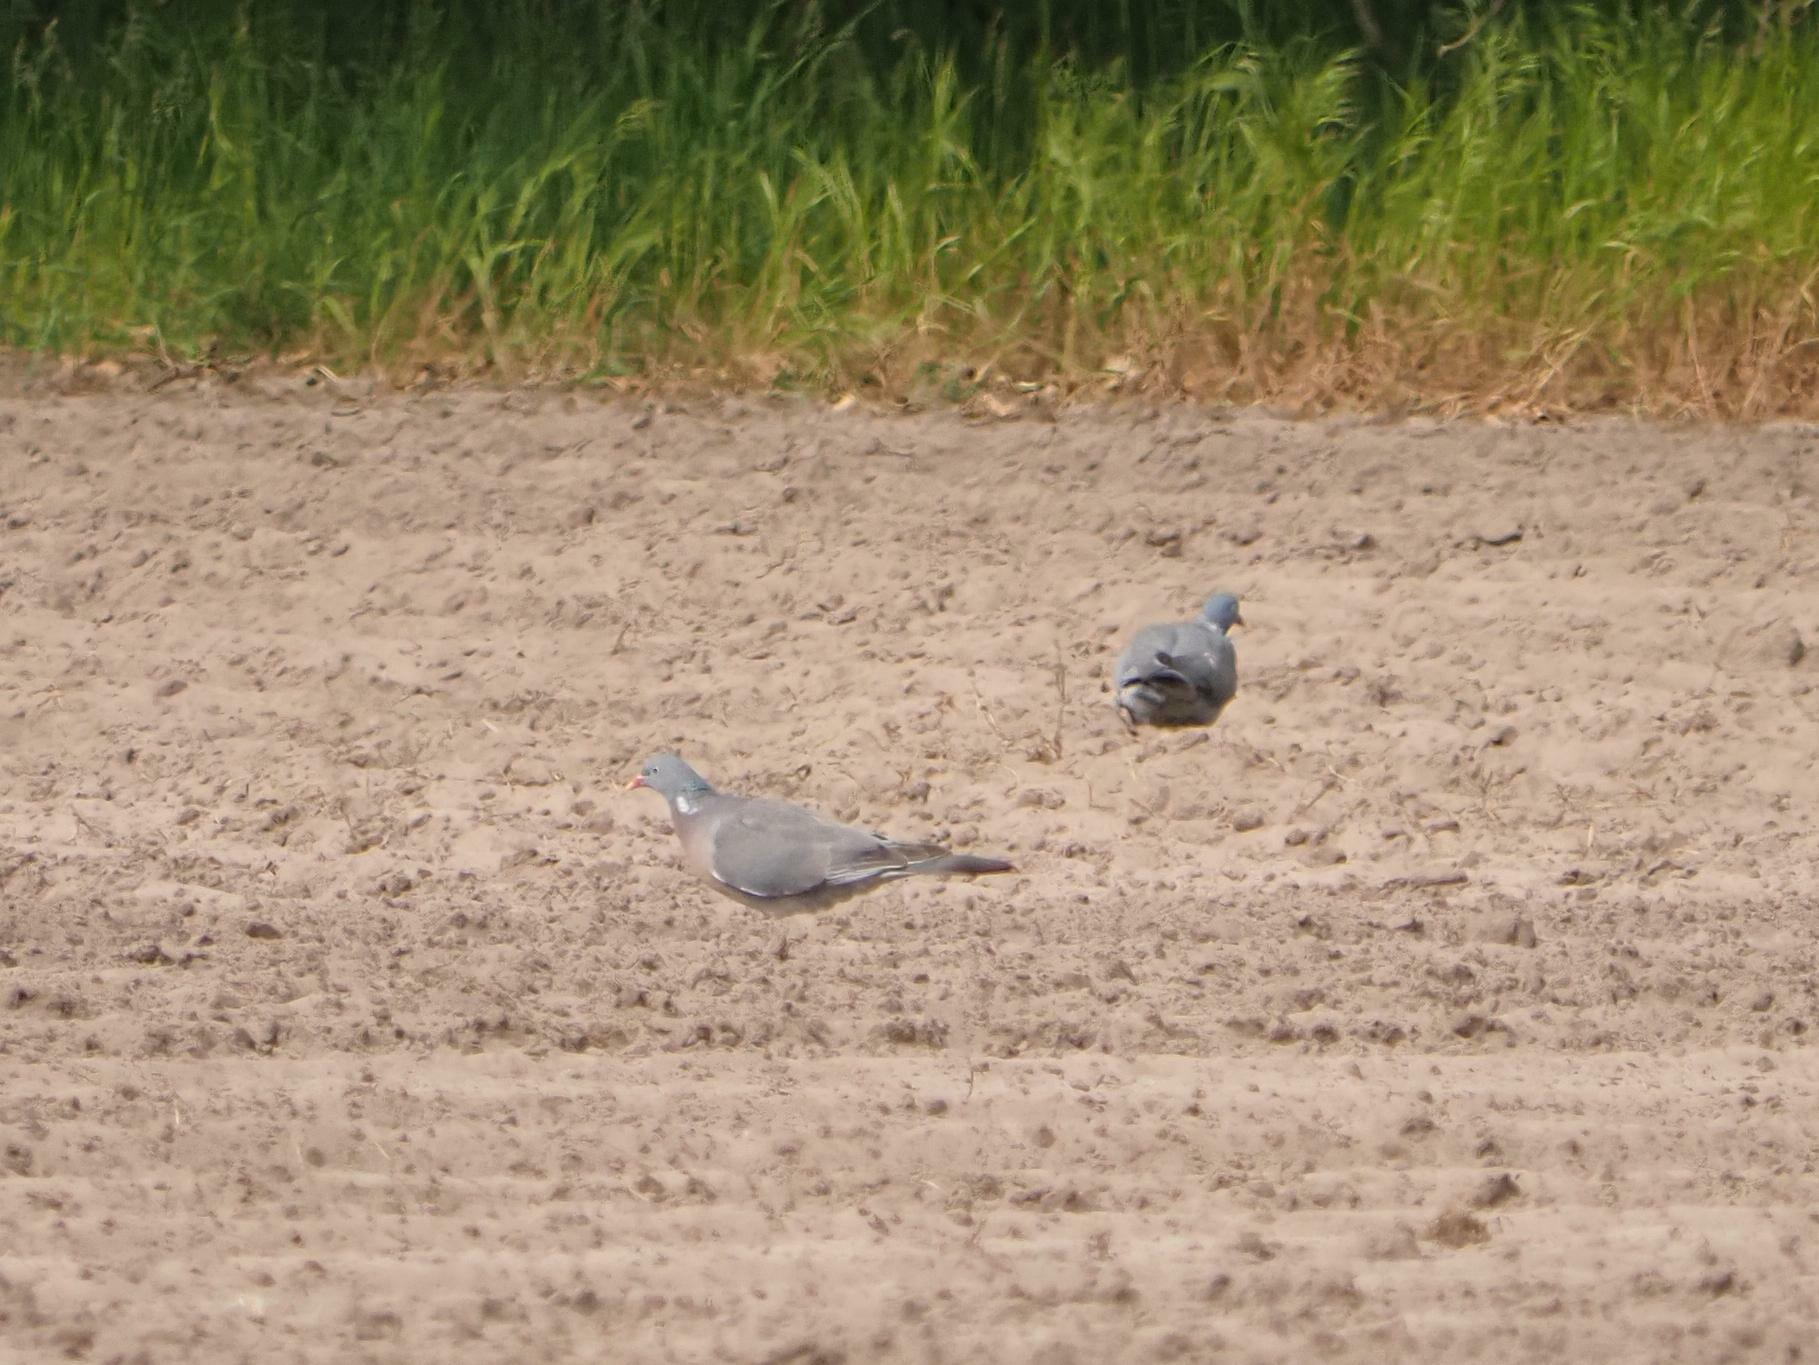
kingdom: Animalia
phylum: Chordata
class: Aves
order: Columbiformes
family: Columbidae
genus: Columba
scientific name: Columba palumbus
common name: Common wood pigeon
